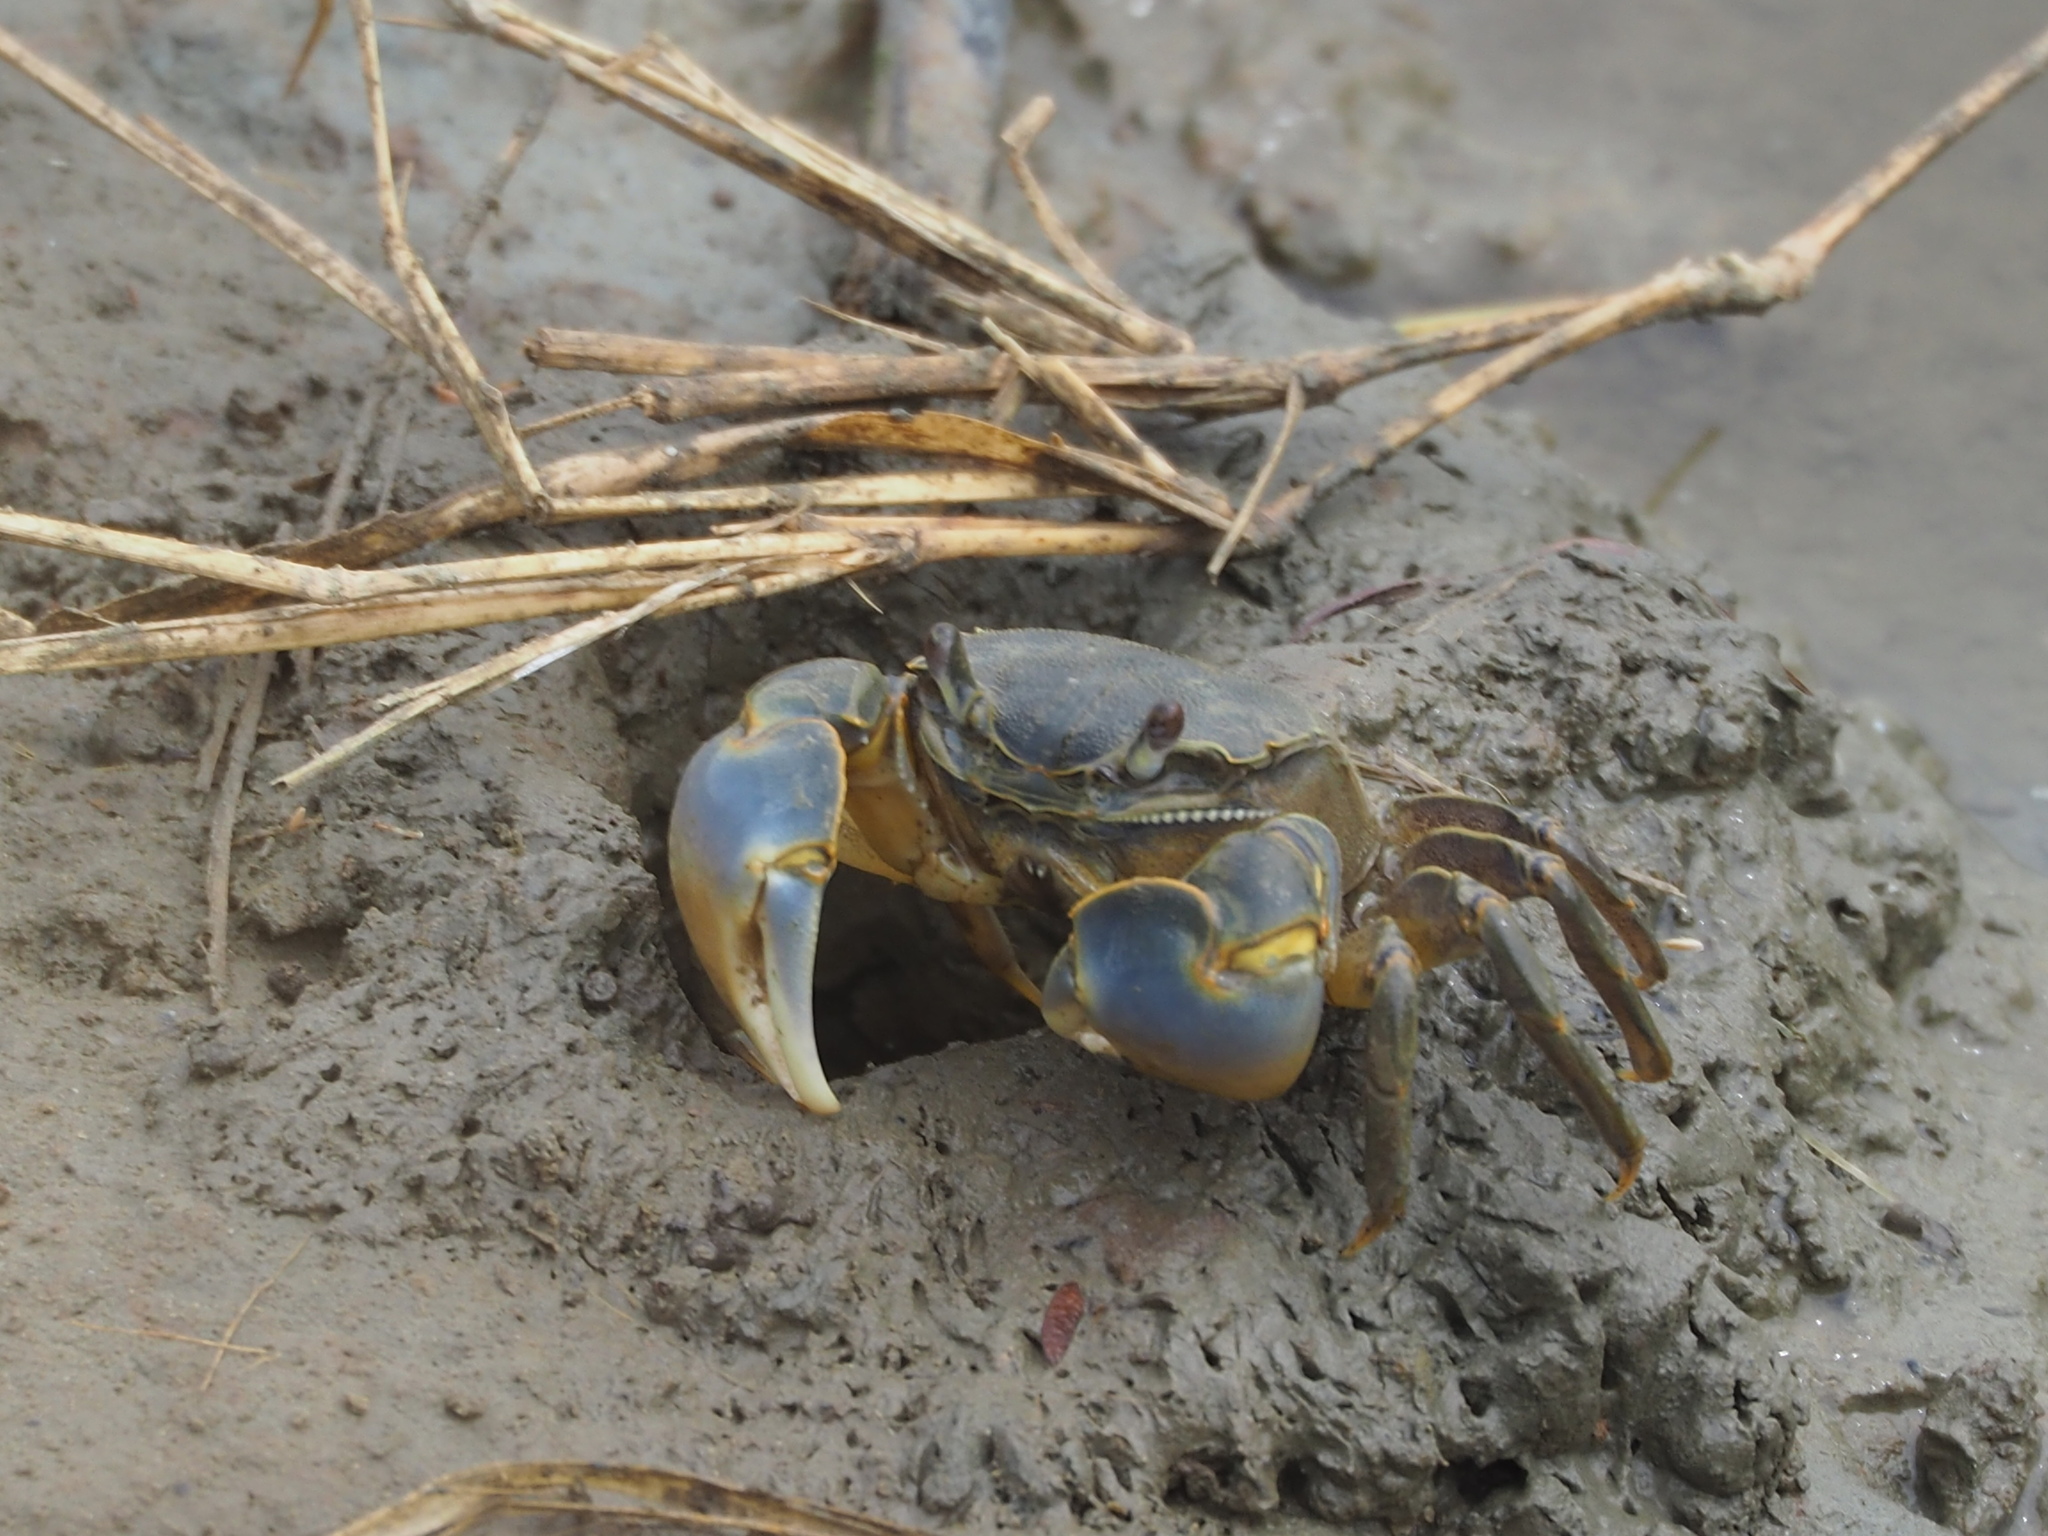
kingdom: Animalia
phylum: Arthropoda
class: Malacostraca
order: Decapoda
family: Varunidae
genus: Helice
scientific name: Helice formosensis
